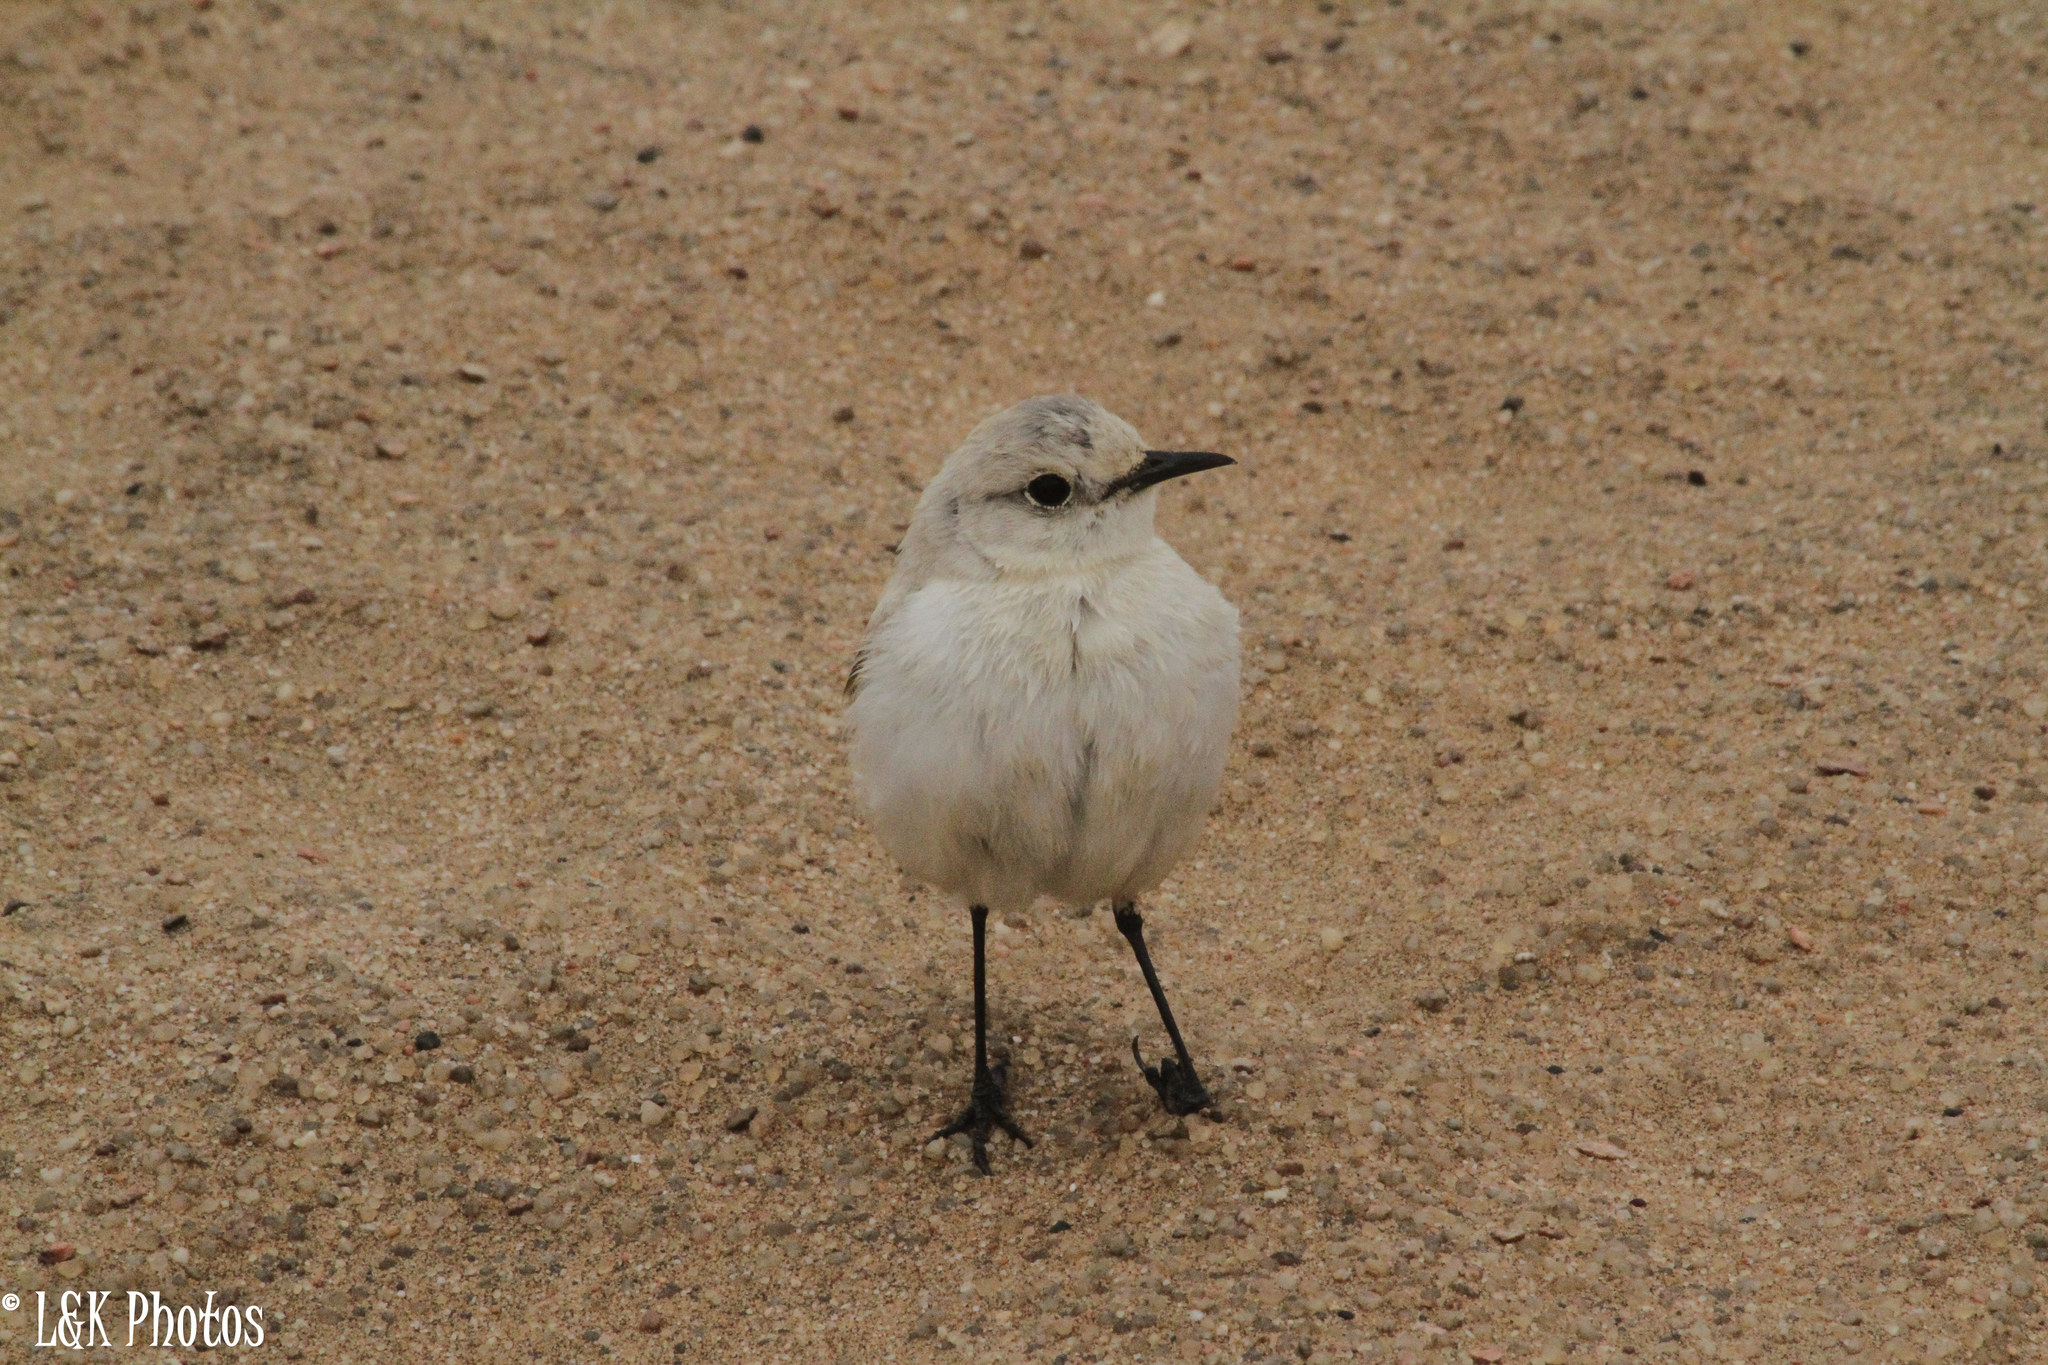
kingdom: Animalia
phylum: Chordata
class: Aves
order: Passeriformes
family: Muscicapidae
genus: Emarginata
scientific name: Emarginata tractrac
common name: Tractrac chat
